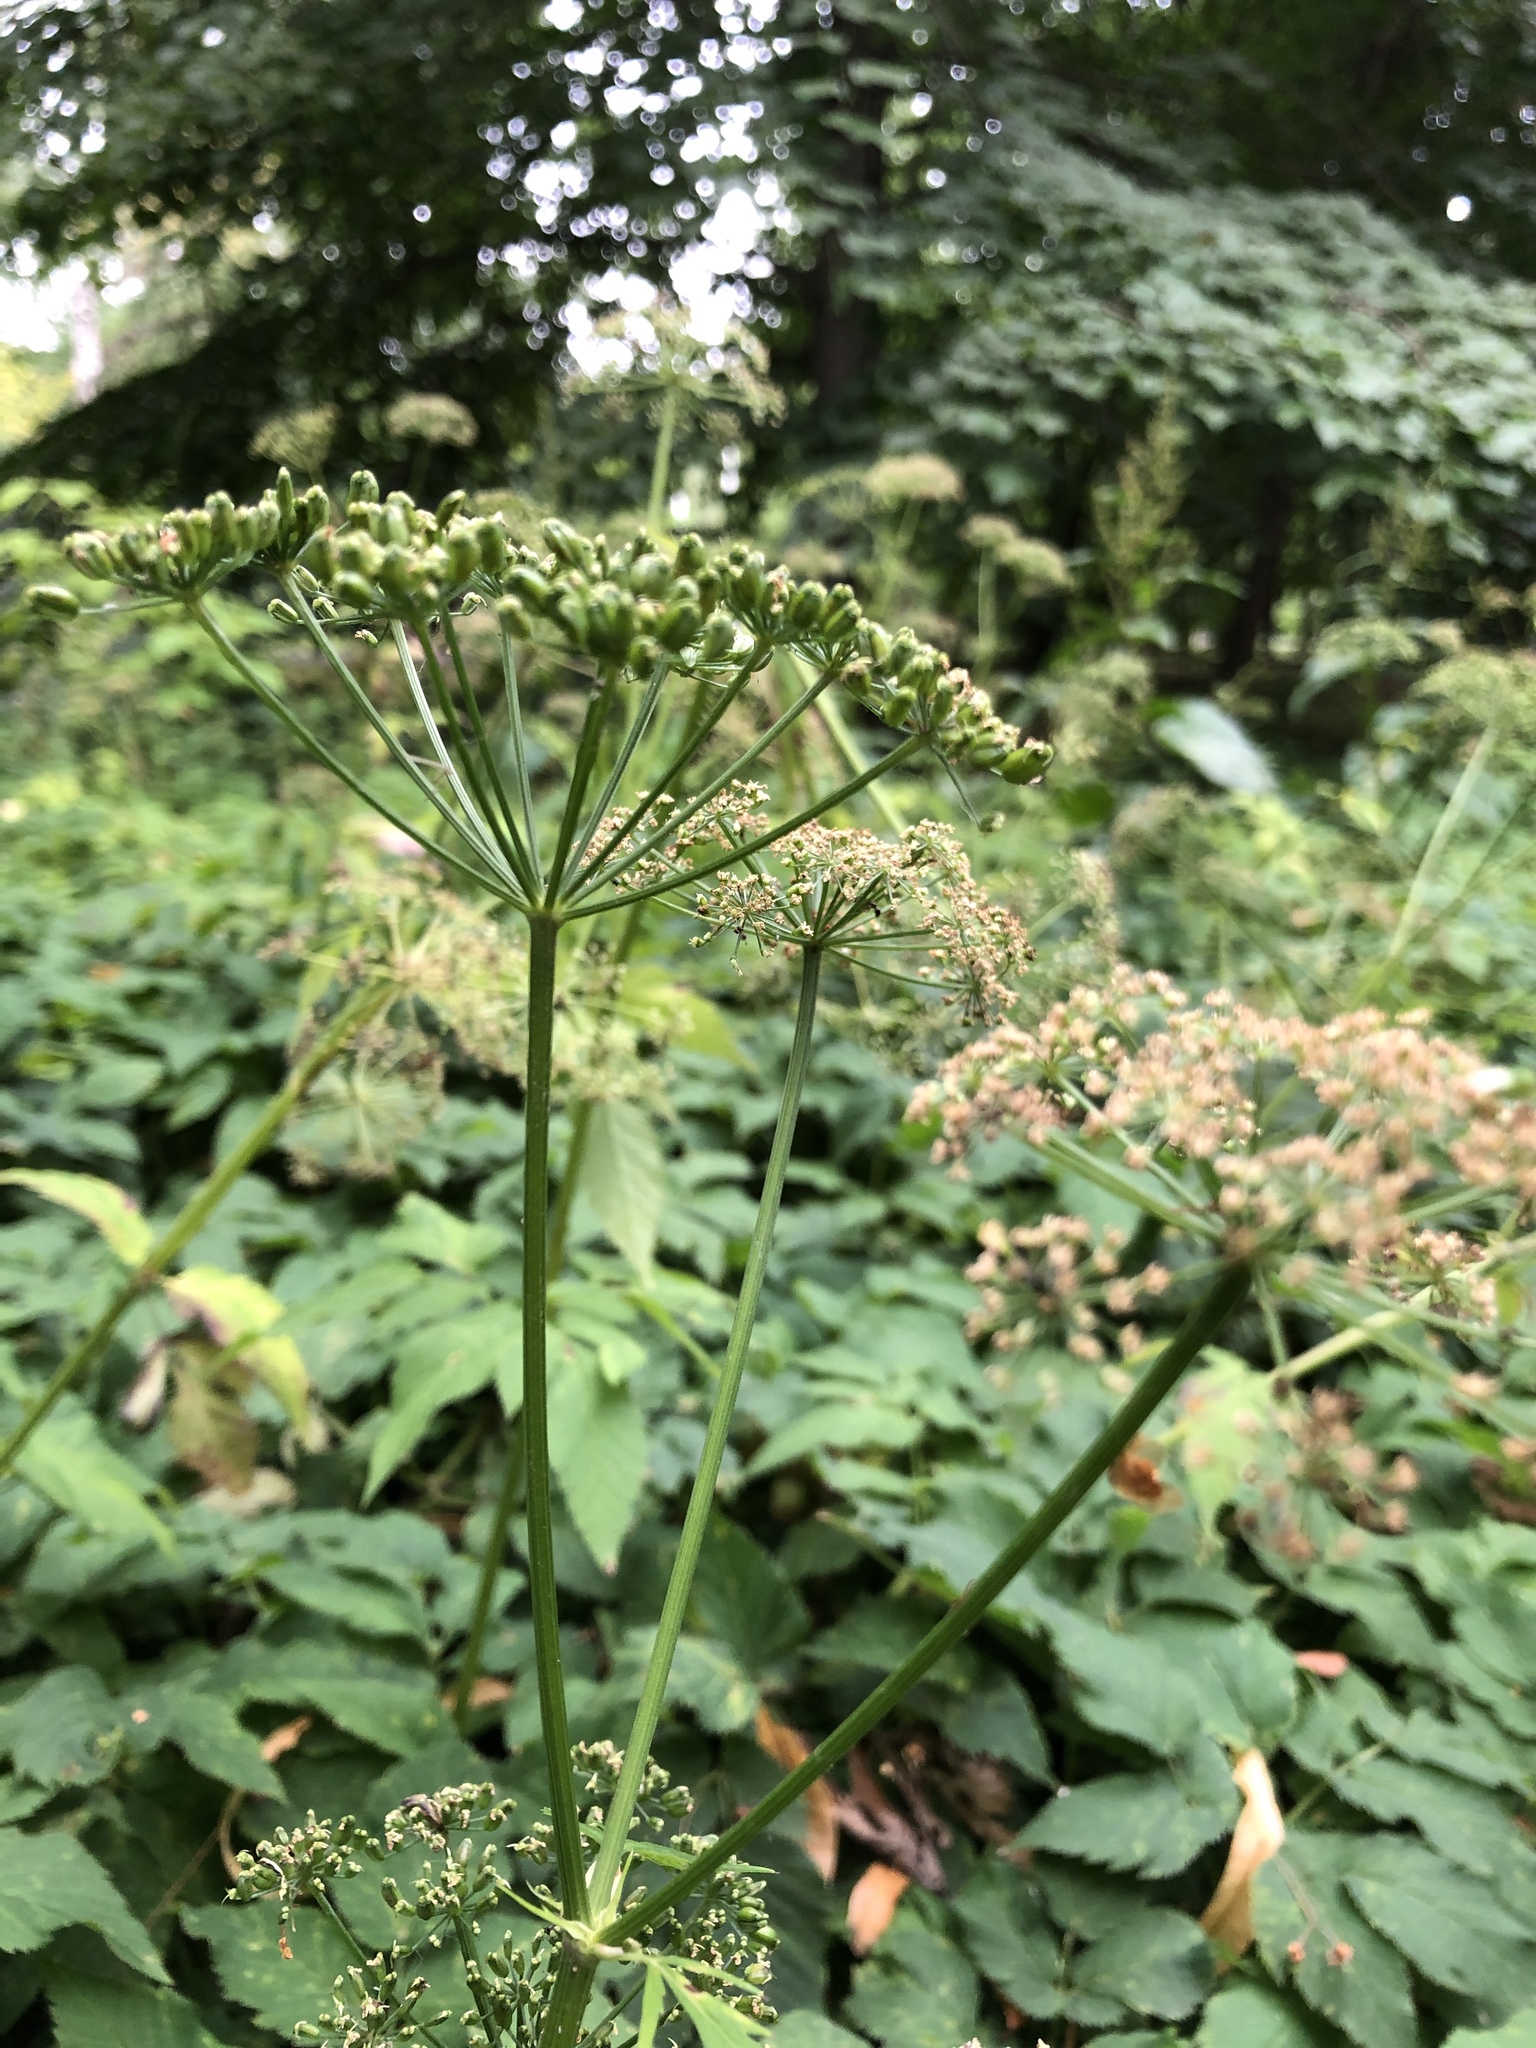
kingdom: Plantae
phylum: Tracheophyta
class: Magnoliopsida
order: Apiales
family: Apiaceae
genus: Aegopodium
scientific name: Aegopodium podagraria
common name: Ground-elder
